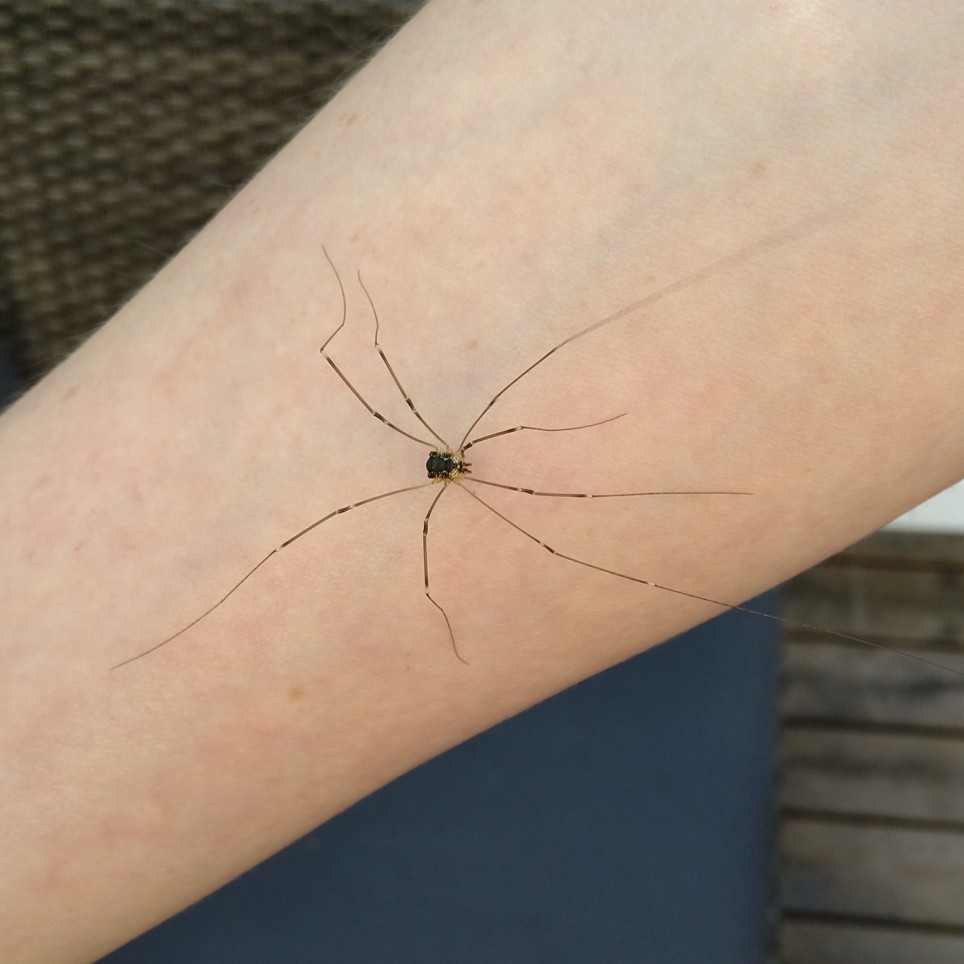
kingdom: Animalia
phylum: Arthropoda
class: Arachnida
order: Opiliones
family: Sclerosomatidae
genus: Leiobunum
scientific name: Leiobunum gracile
